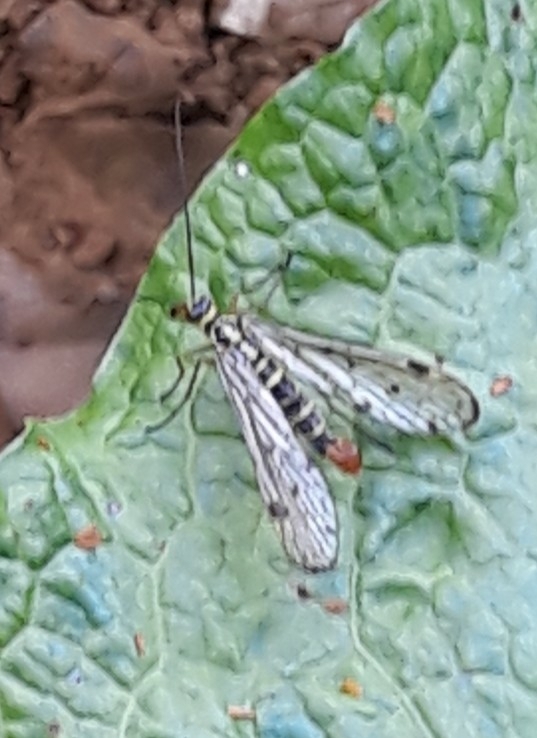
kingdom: Animalia
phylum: Arthropoda
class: Insecta
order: Mecoptera
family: Panorpidae
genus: Panorpa
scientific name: Panorpa germanica
